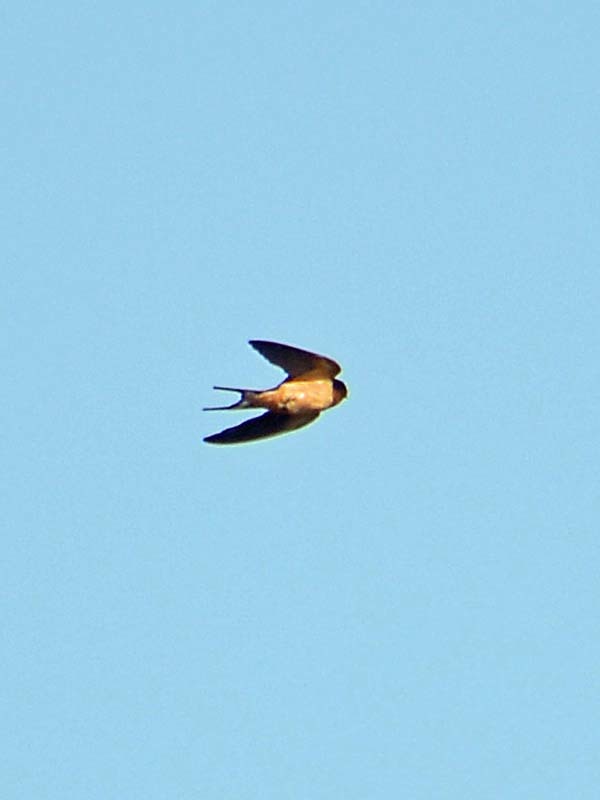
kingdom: Animalia
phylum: Chordata
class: Aves
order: Passeriformes
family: Hirundinidae
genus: Hirundo
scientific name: Hirundo rustica
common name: Barn swallow
